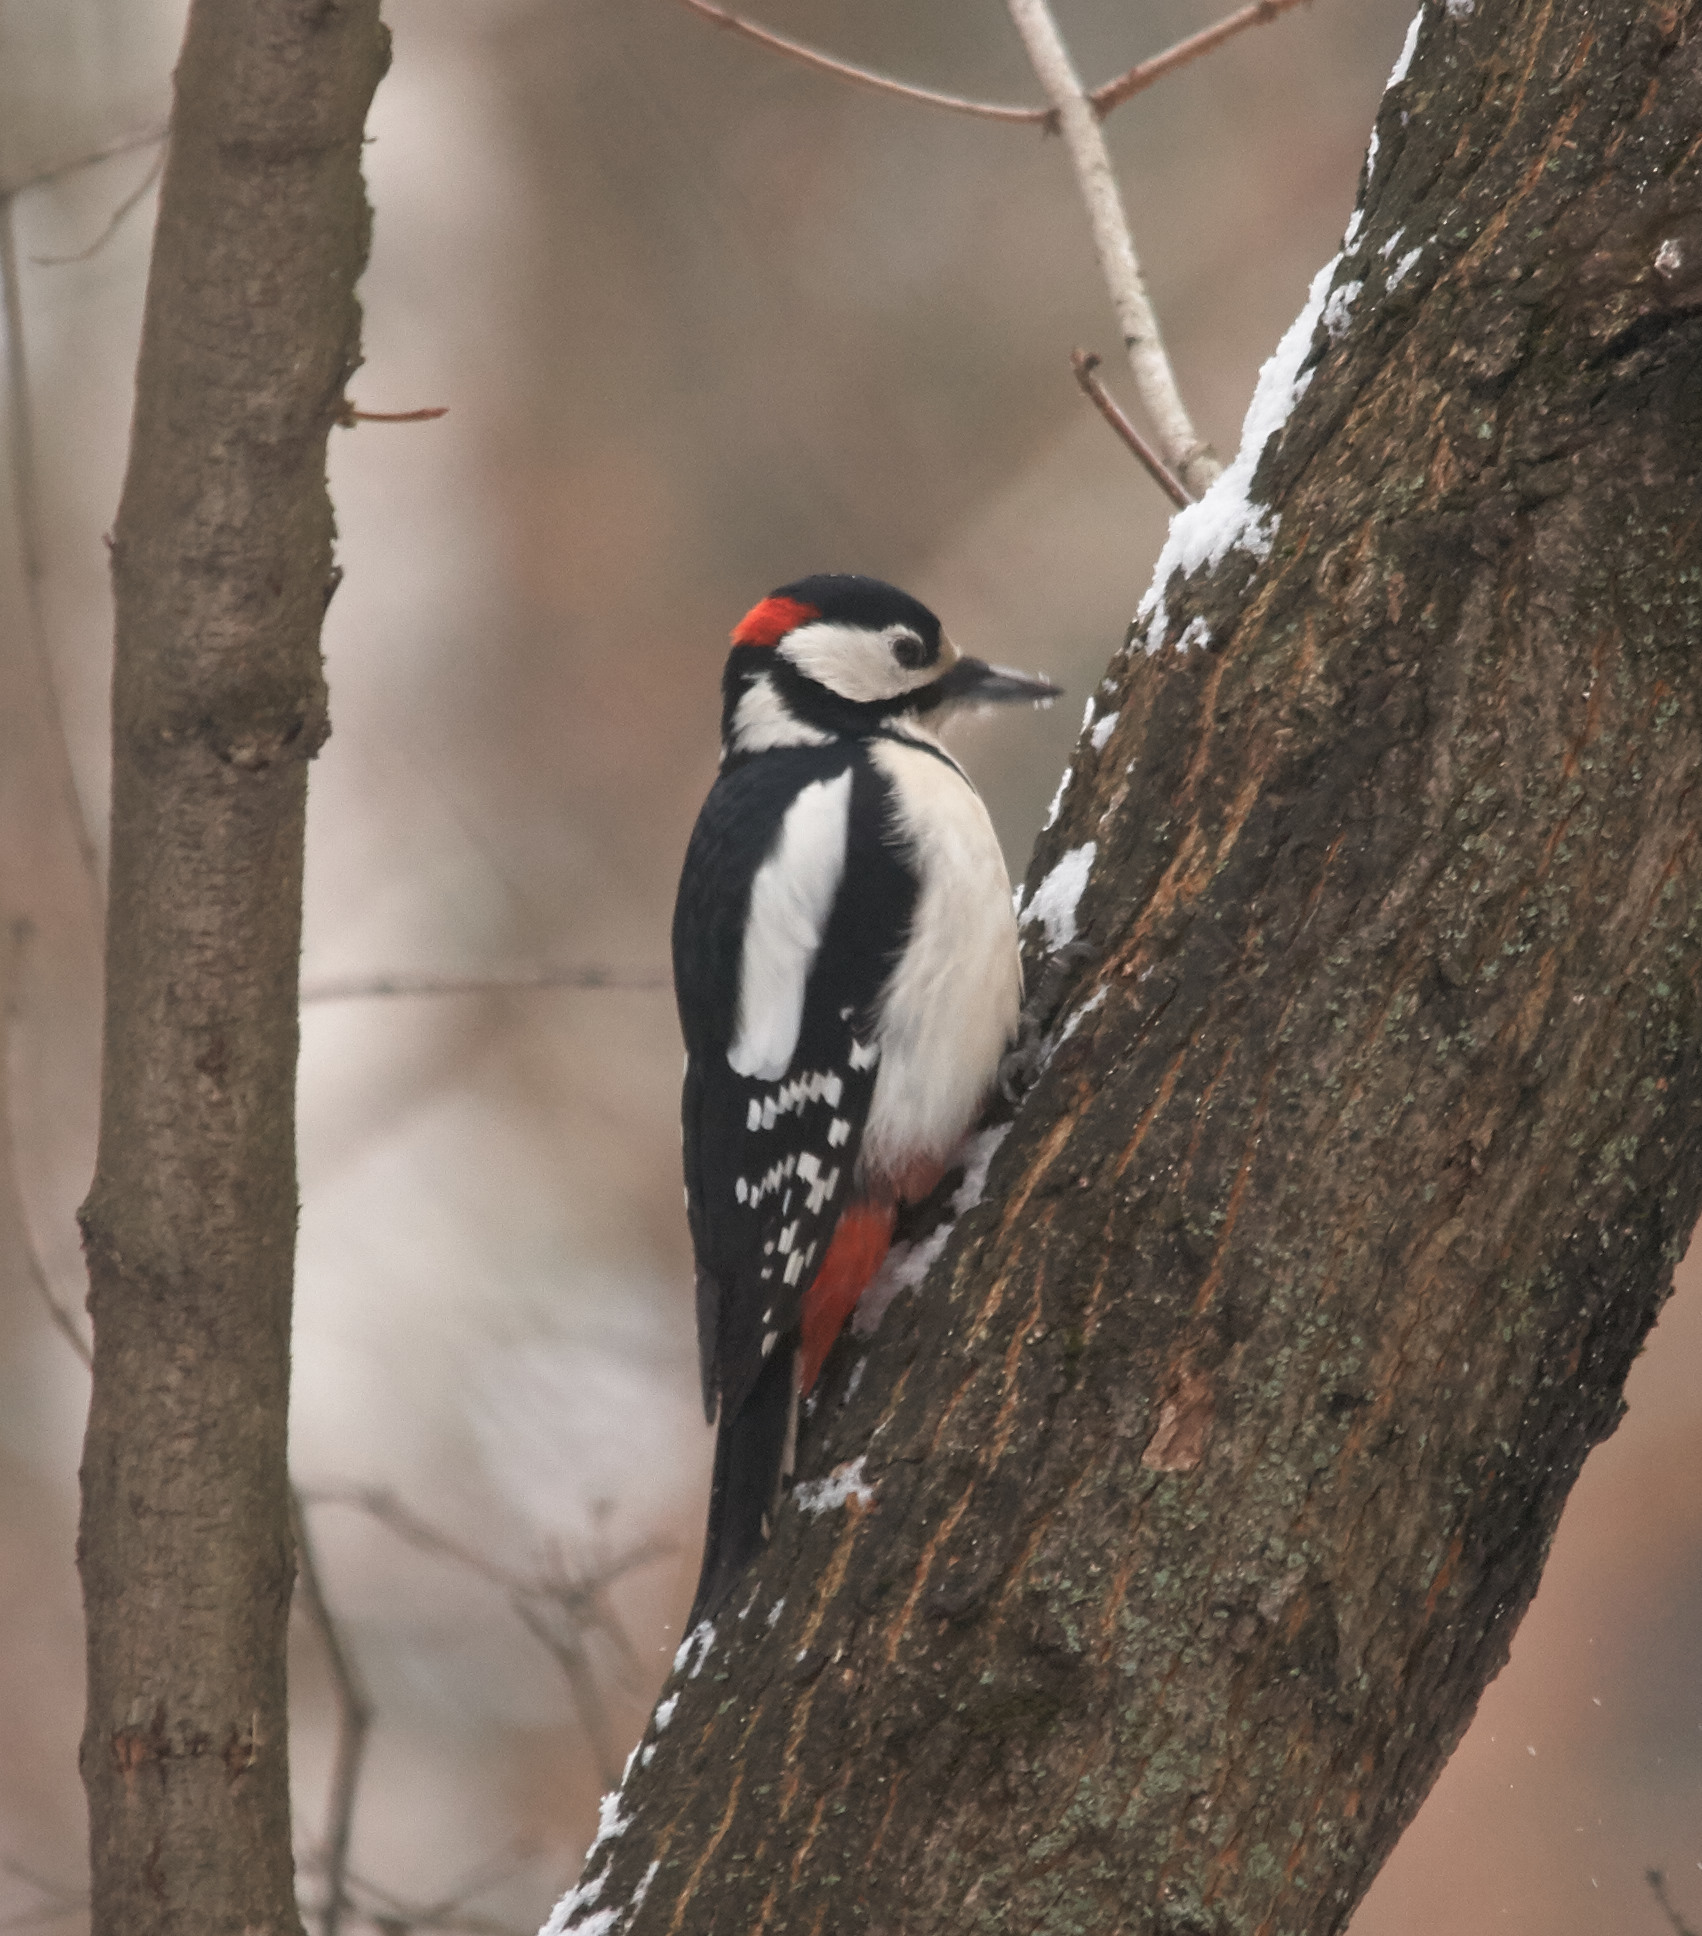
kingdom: Animalia
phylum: Chordata
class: Aves
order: Piciformes
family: Picidae
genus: Dendrocopos
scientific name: Dendrocopos major
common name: Great spotted woodpecker
